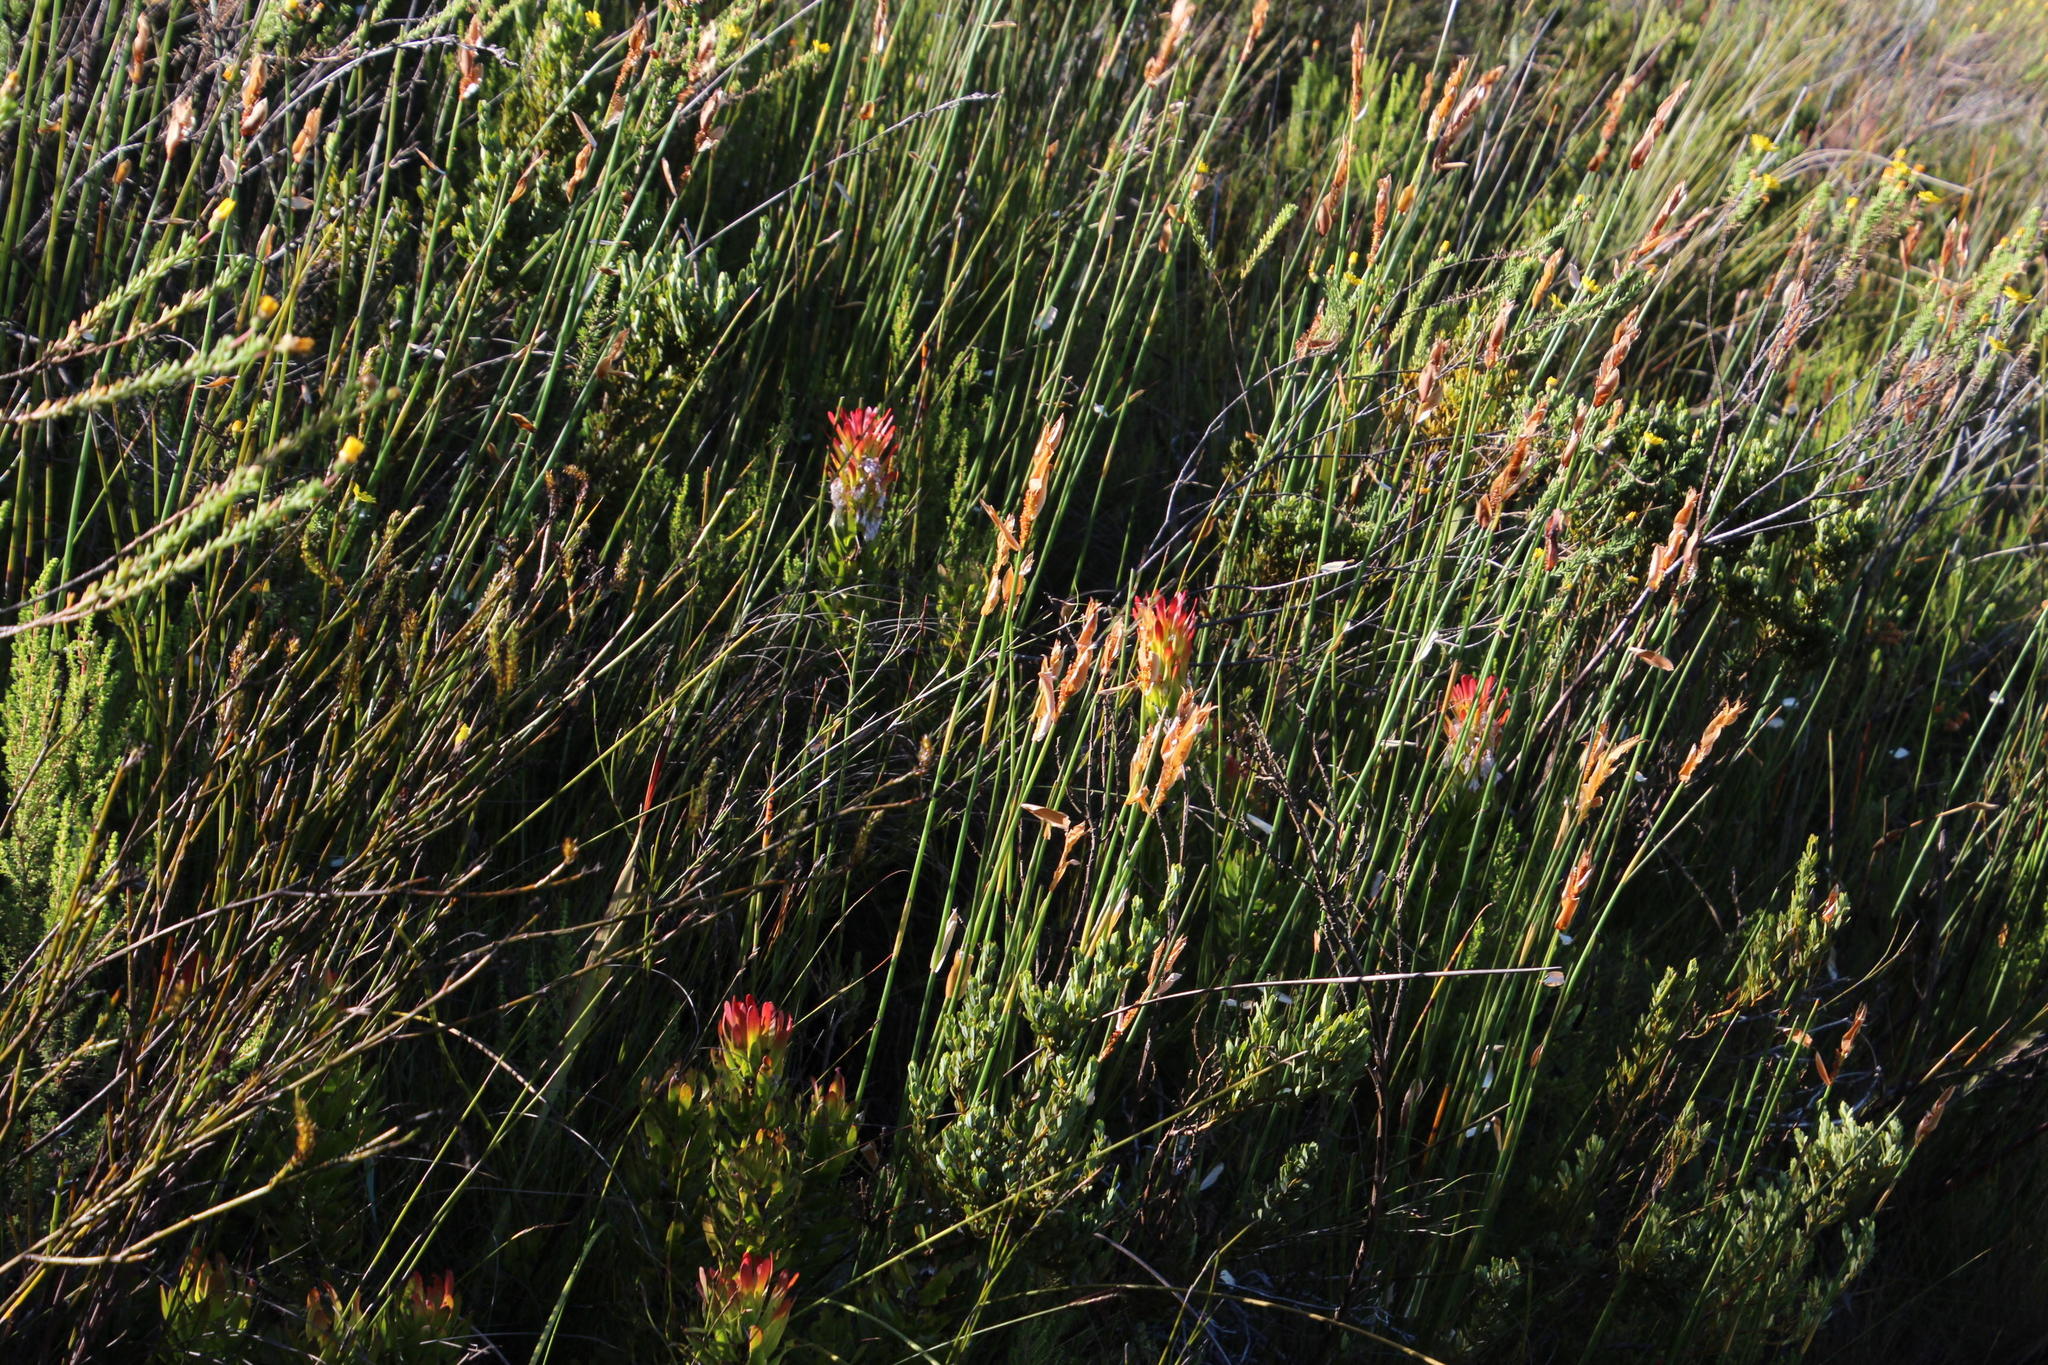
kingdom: Plantae
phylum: Tracheophyta
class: Magnoliopsida
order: Proteales
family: Proteaceae
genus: Mimetes
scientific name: Mimetes cucullatus
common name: Common pagoda
